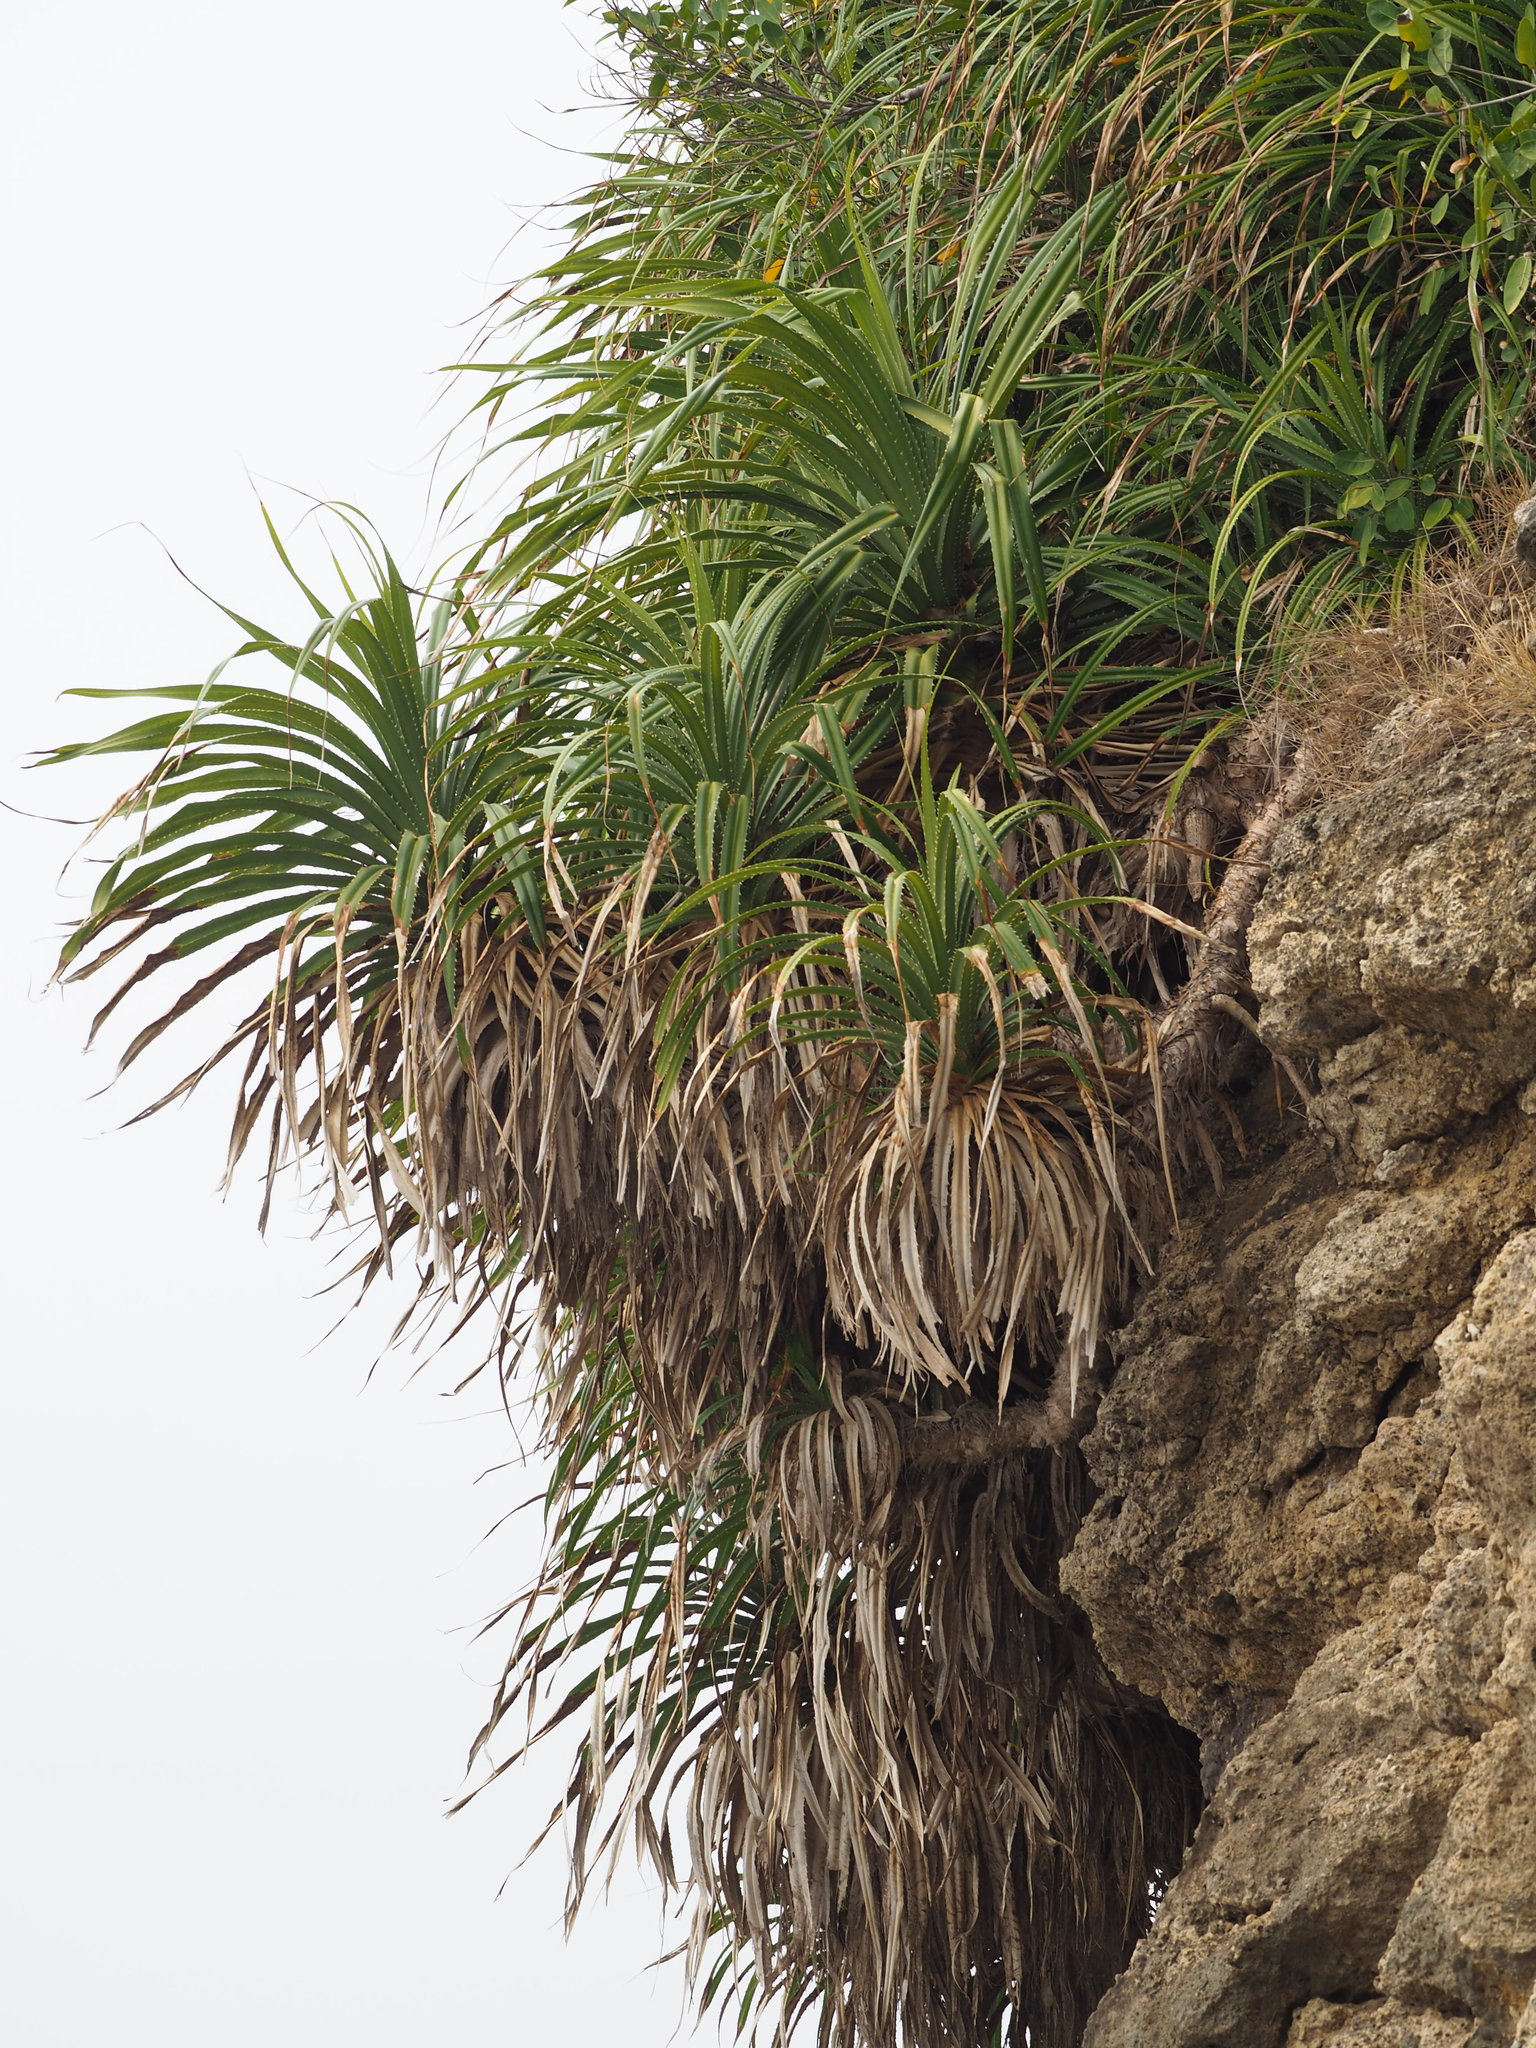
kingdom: Plantae
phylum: Tracheophyta
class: Liliopsida
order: Pandanales
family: Pandanaceae
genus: Pandanus
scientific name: Pandanus odorifer
